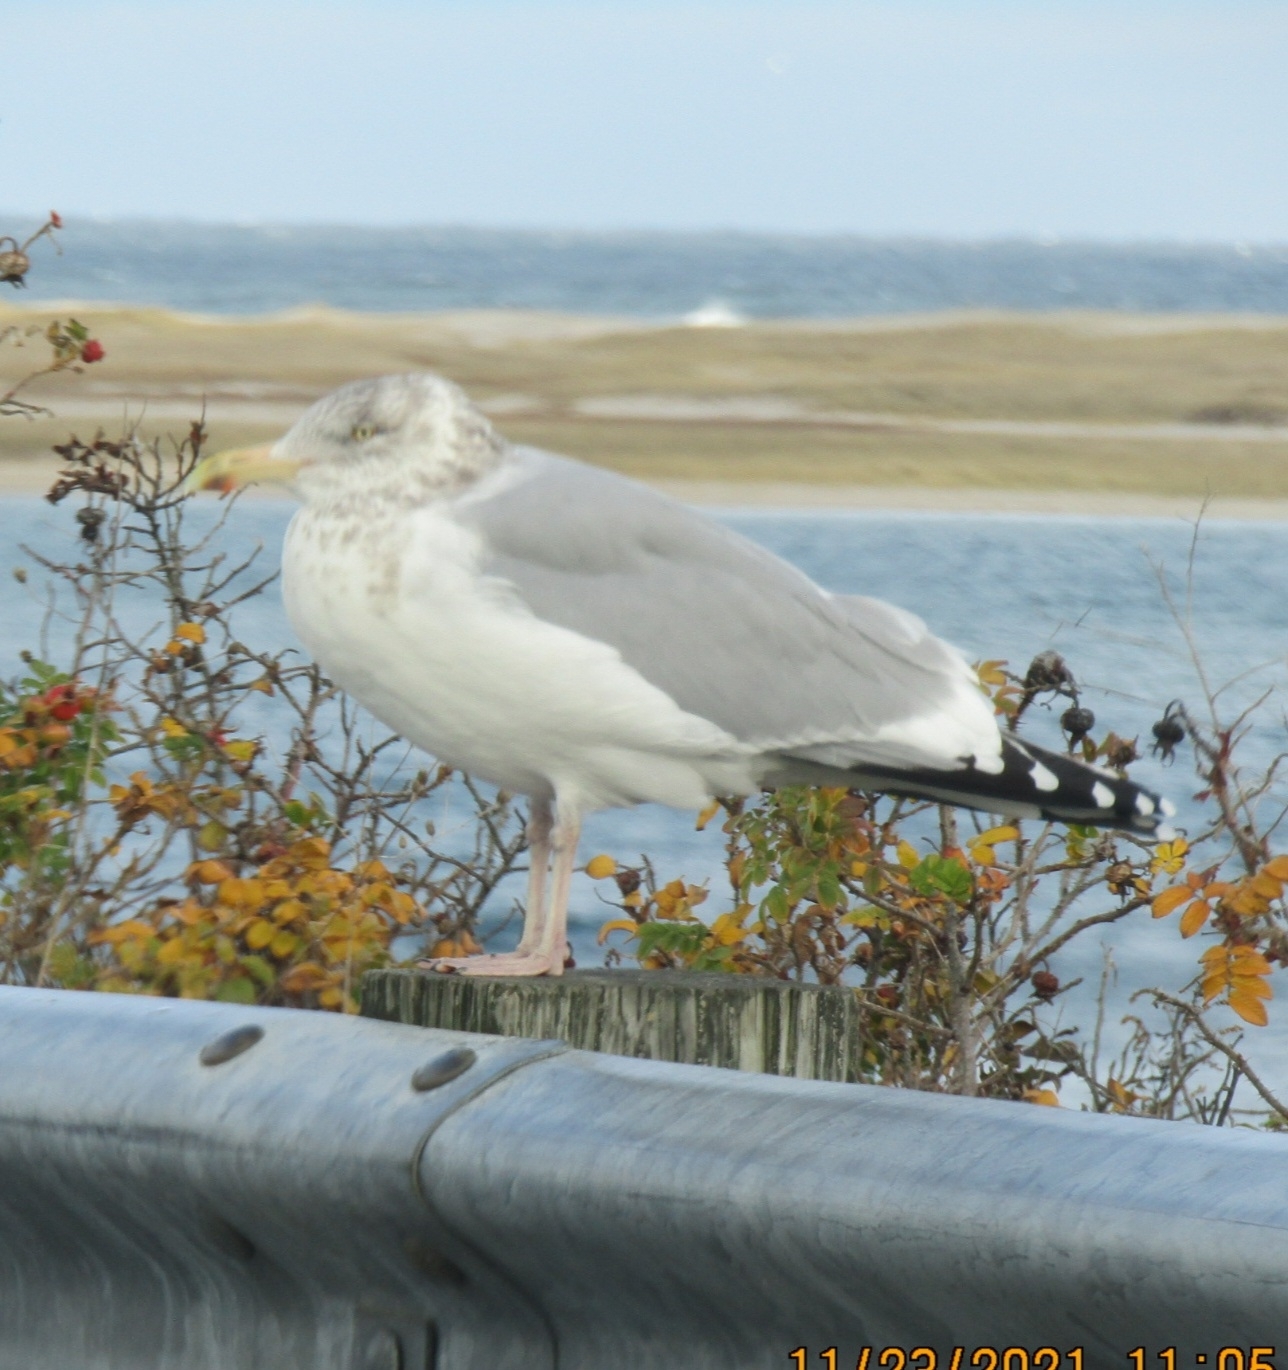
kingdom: Animalia
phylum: Chordata
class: Aves
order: Charadriiformes
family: Laridae
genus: Larus
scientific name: Larus argentatus
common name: Herring gull
